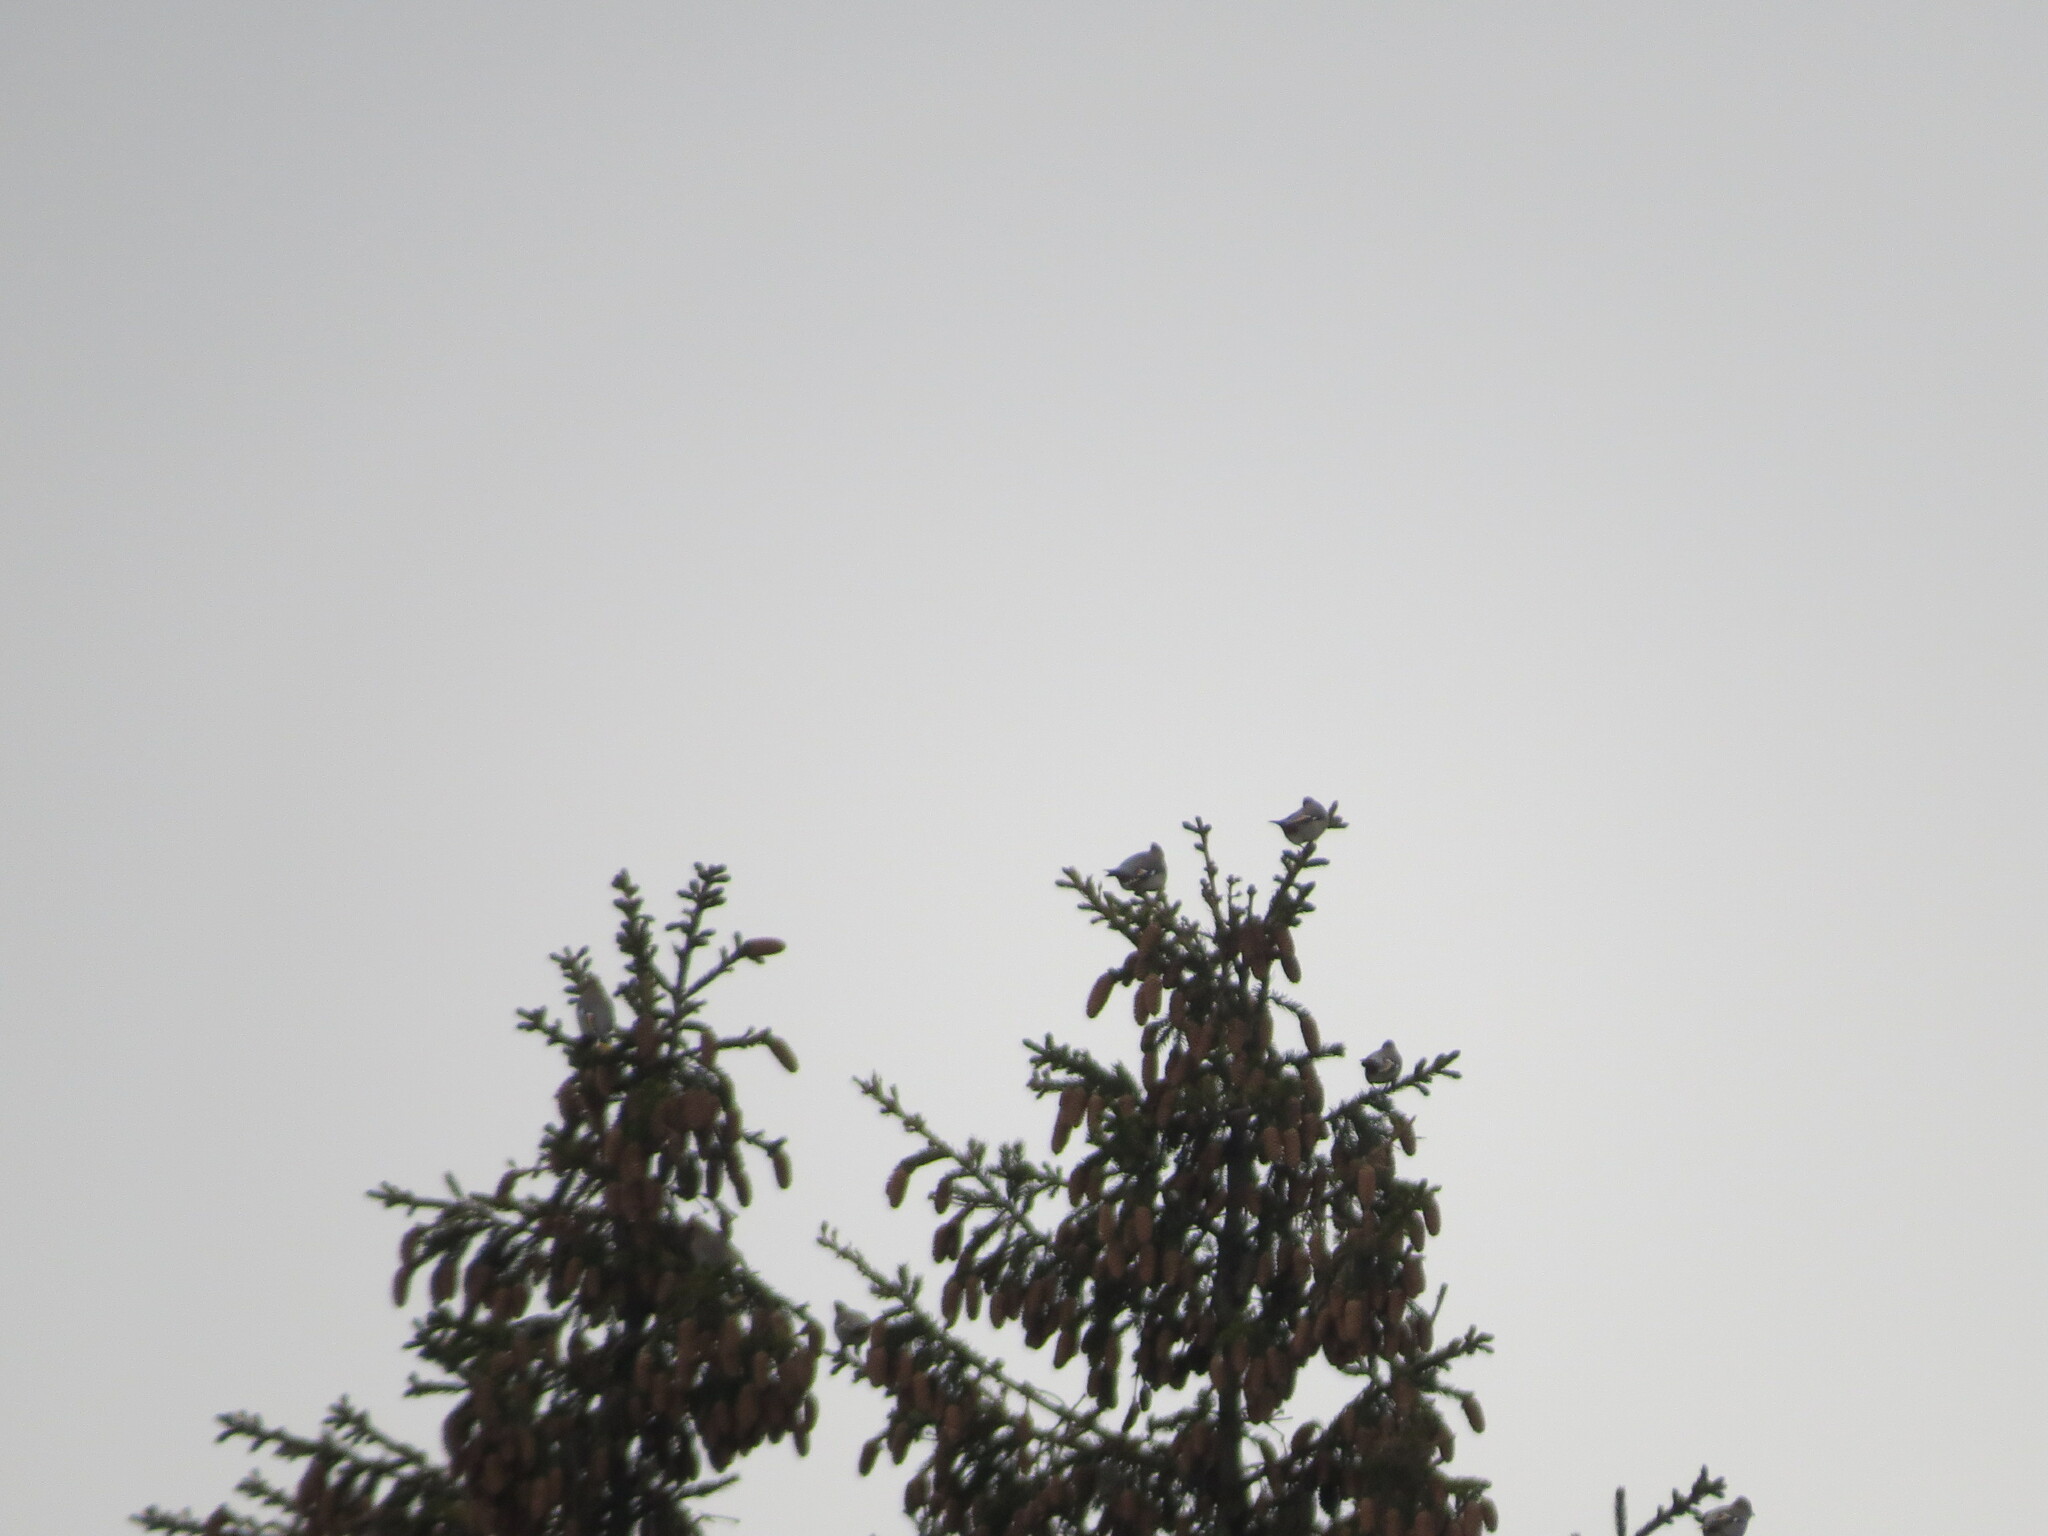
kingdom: Animalia
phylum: Chordata
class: Aves
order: Passeriformes
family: Bombycillidae
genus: Bombycilla
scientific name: Bombycilla garrulus
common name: Bohemian waxwing
